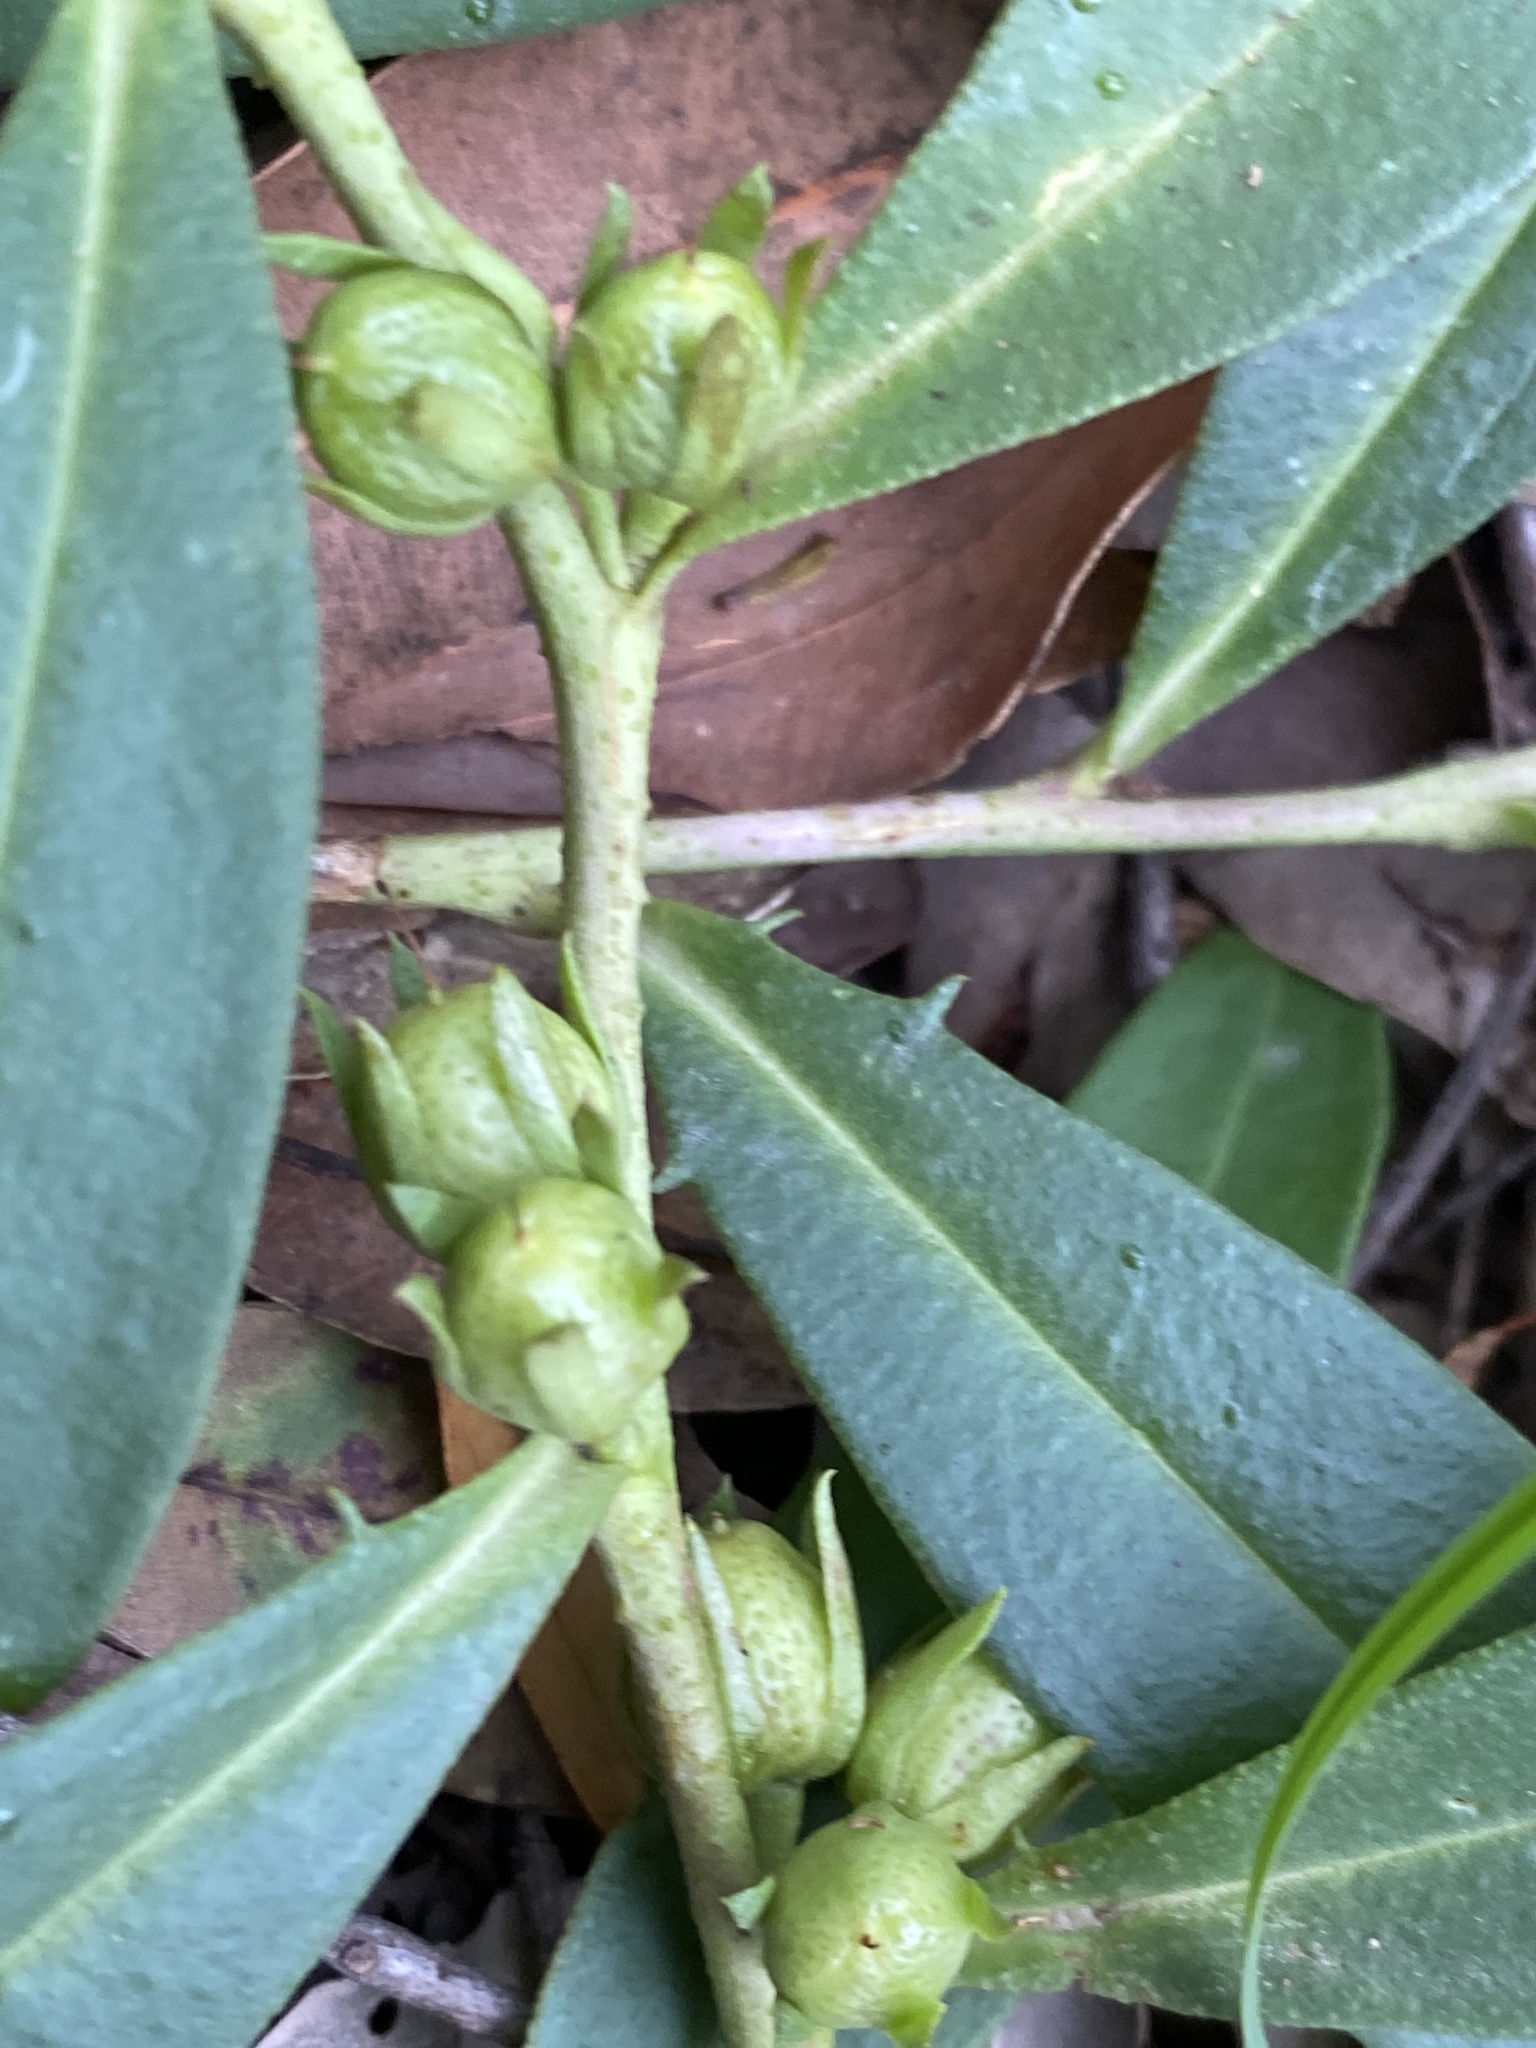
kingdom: Plantae
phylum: Tracheophyta
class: Magnoliopsida
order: Lamiales
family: Scrophulariaceae
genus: Eremophila
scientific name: Eremophila debilis
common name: Winter-apple
